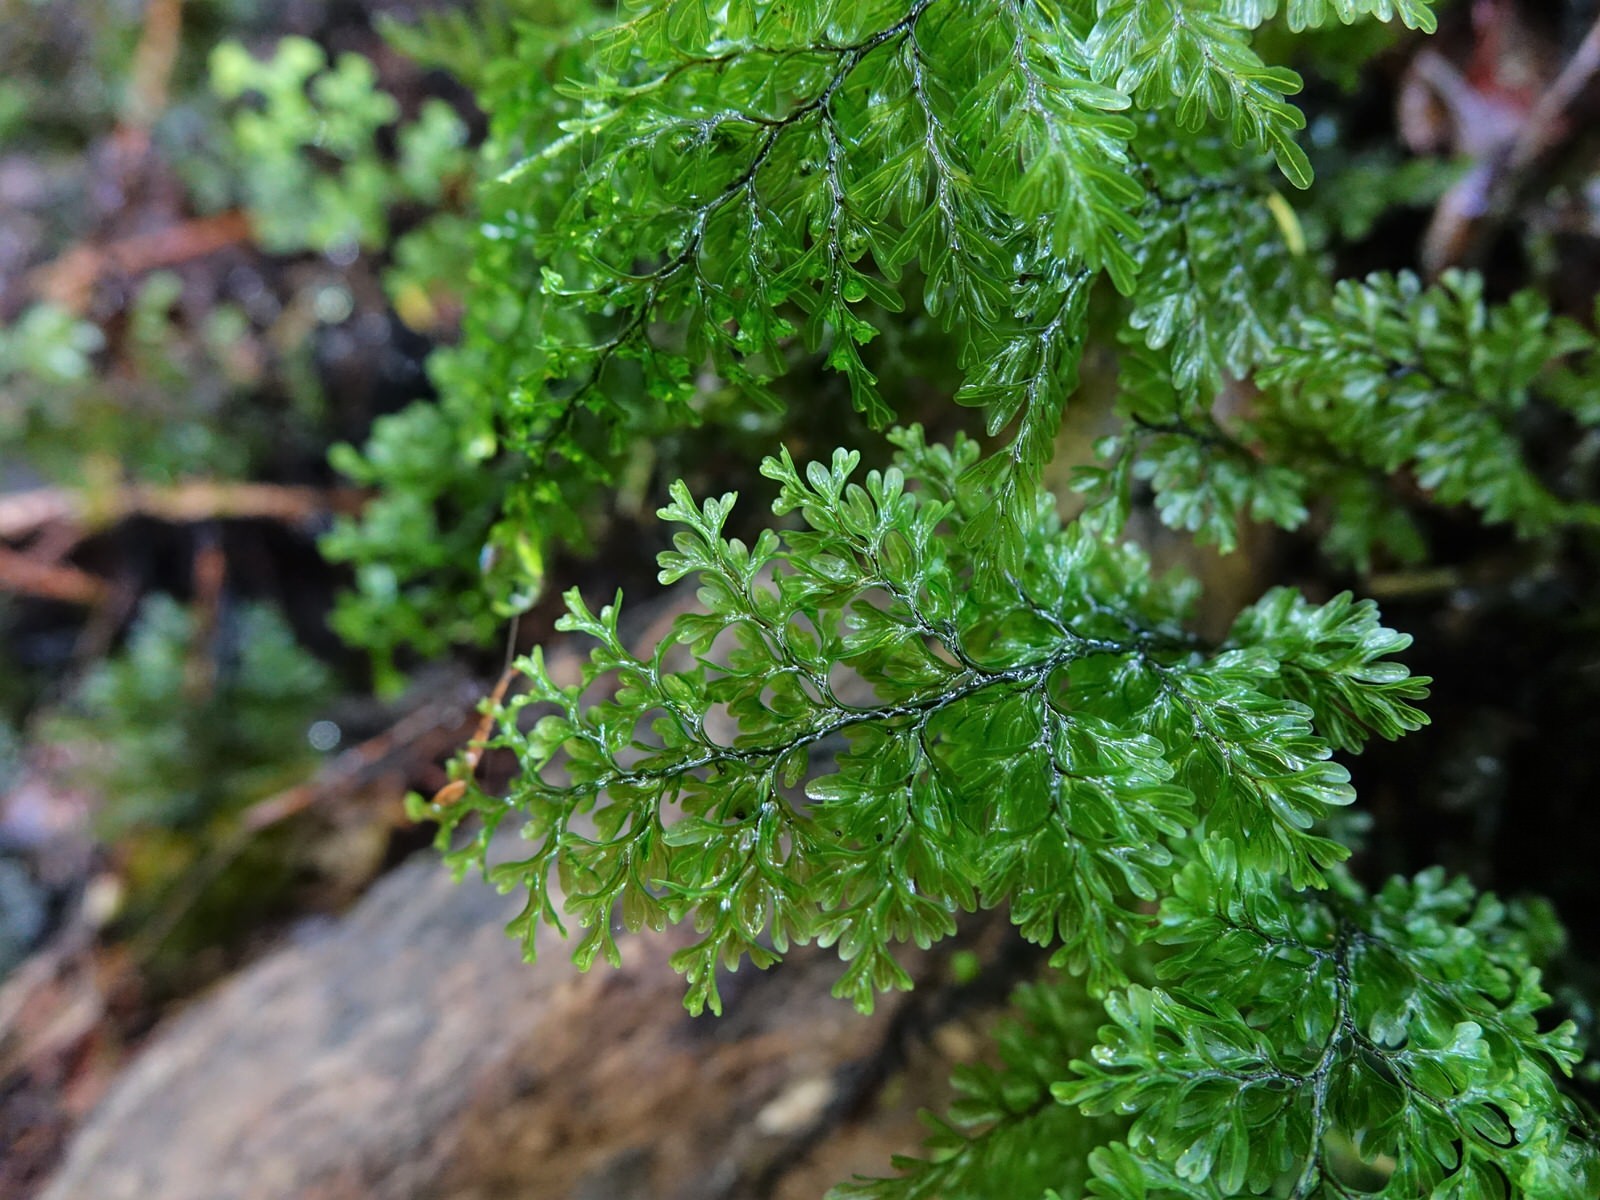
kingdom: Plantae
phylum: Tracheophyta
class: Polypodiopsida
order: Hymenophyllales
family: Hymenophyllaceae
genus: Hymenophyllum
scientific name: Hymenophyllum sanguinolentum
